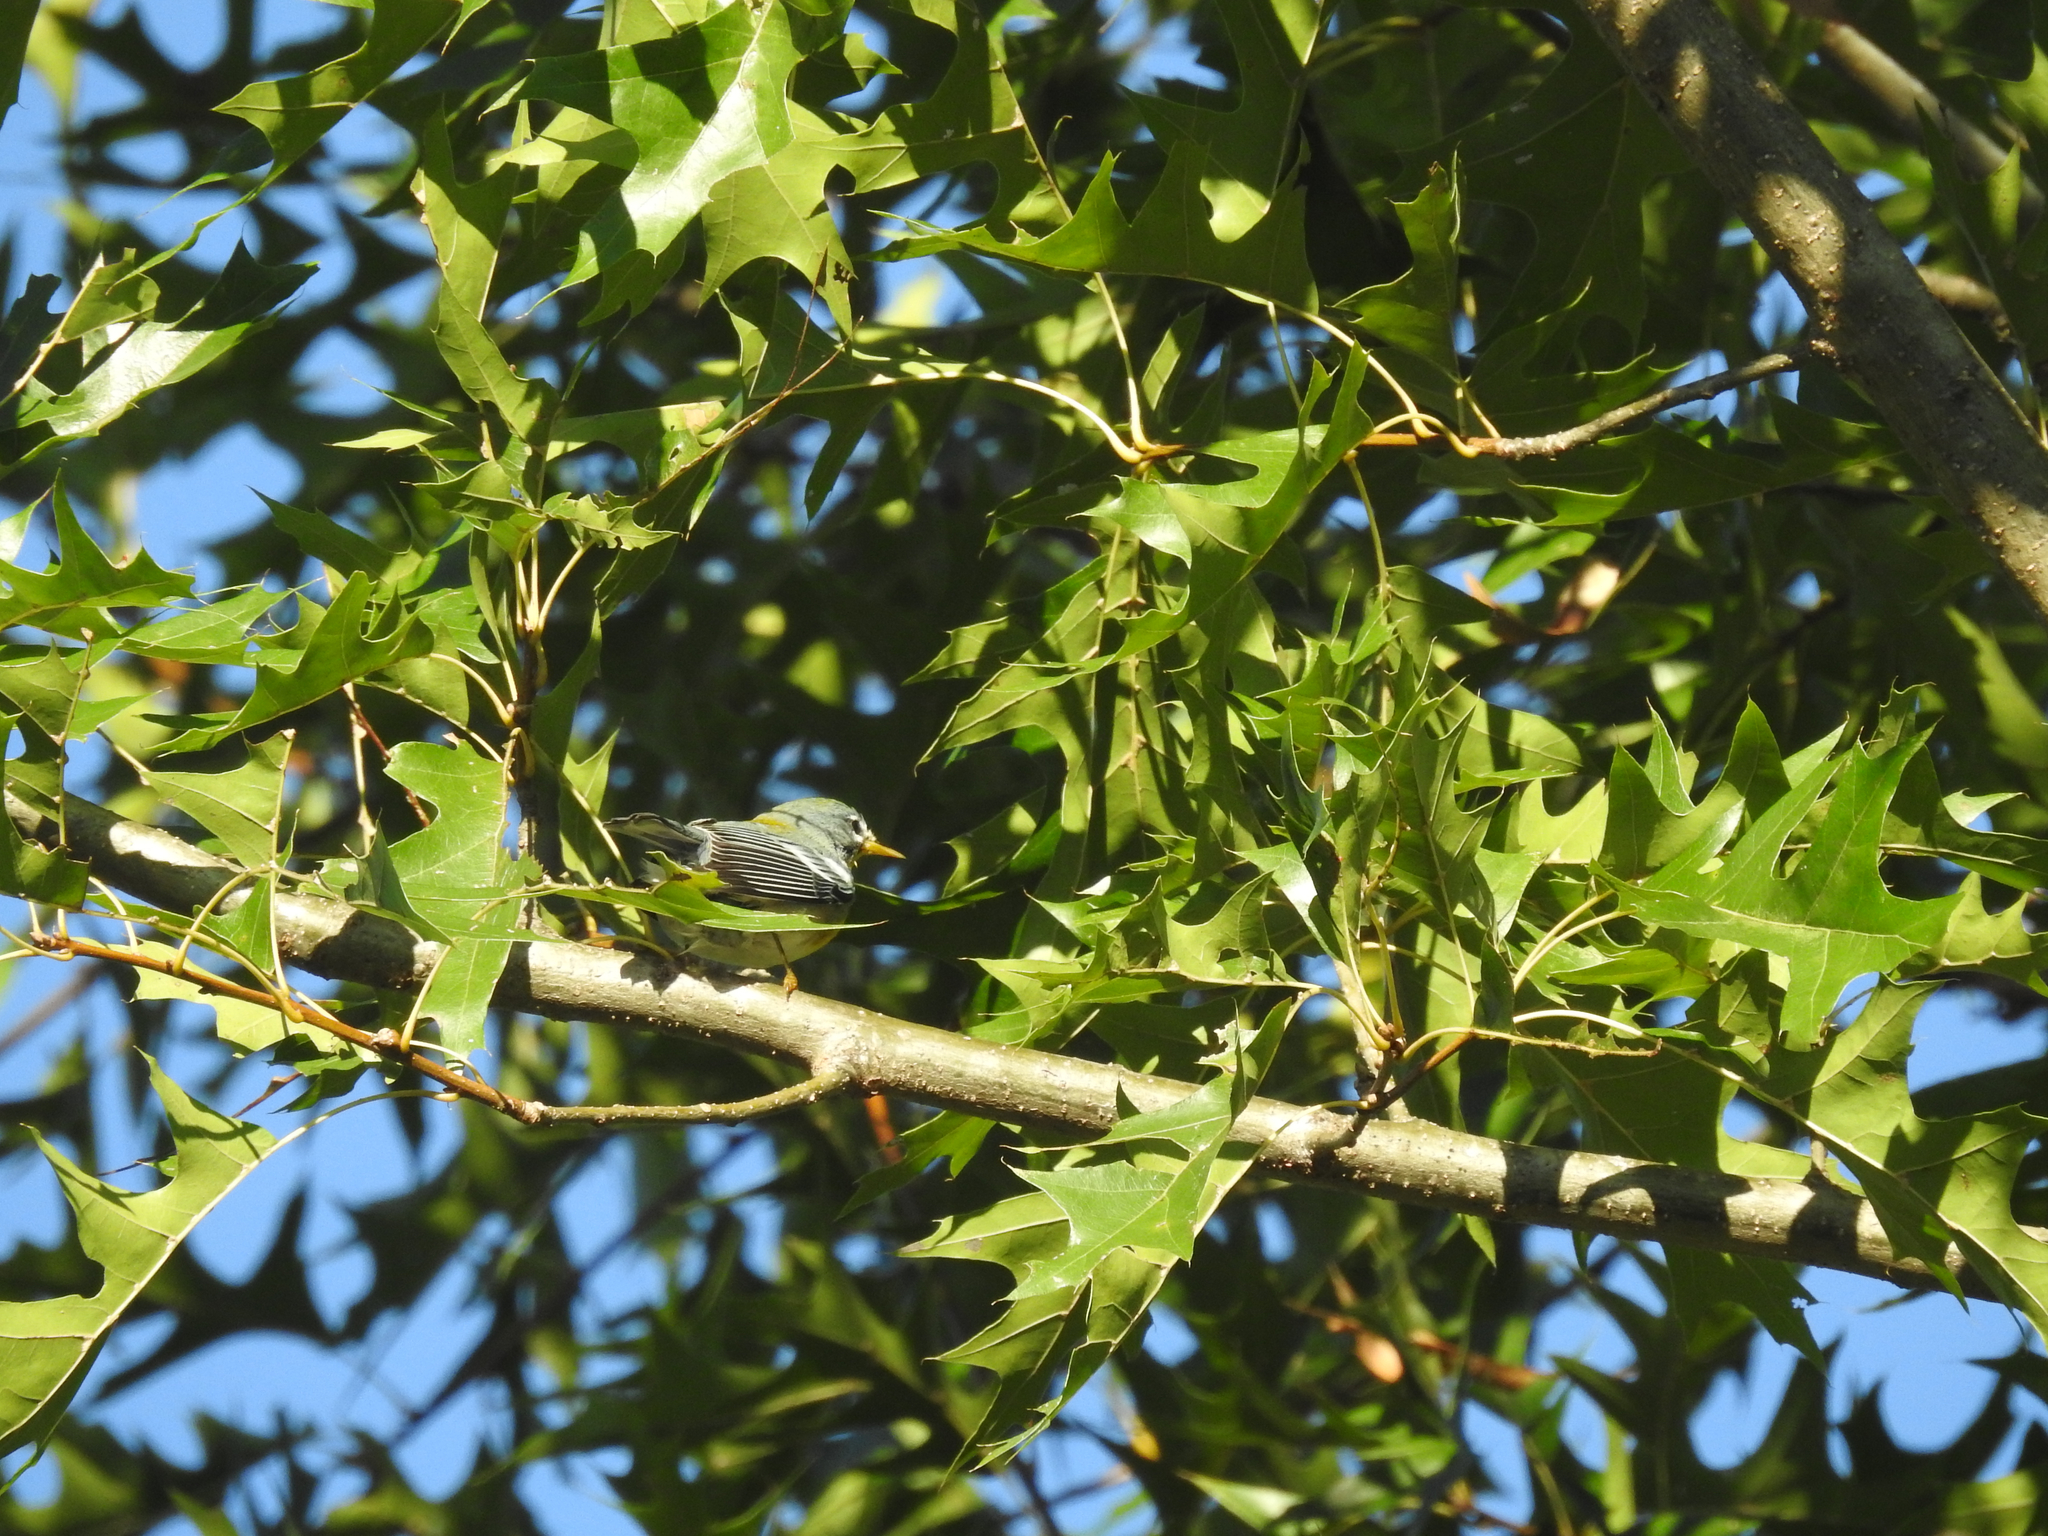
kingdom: Animalia
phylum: Chordata
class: Aves
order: Passeriformes
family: Parulidae
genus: Setophaga
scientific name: Setophaga americana
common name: Northern parula
